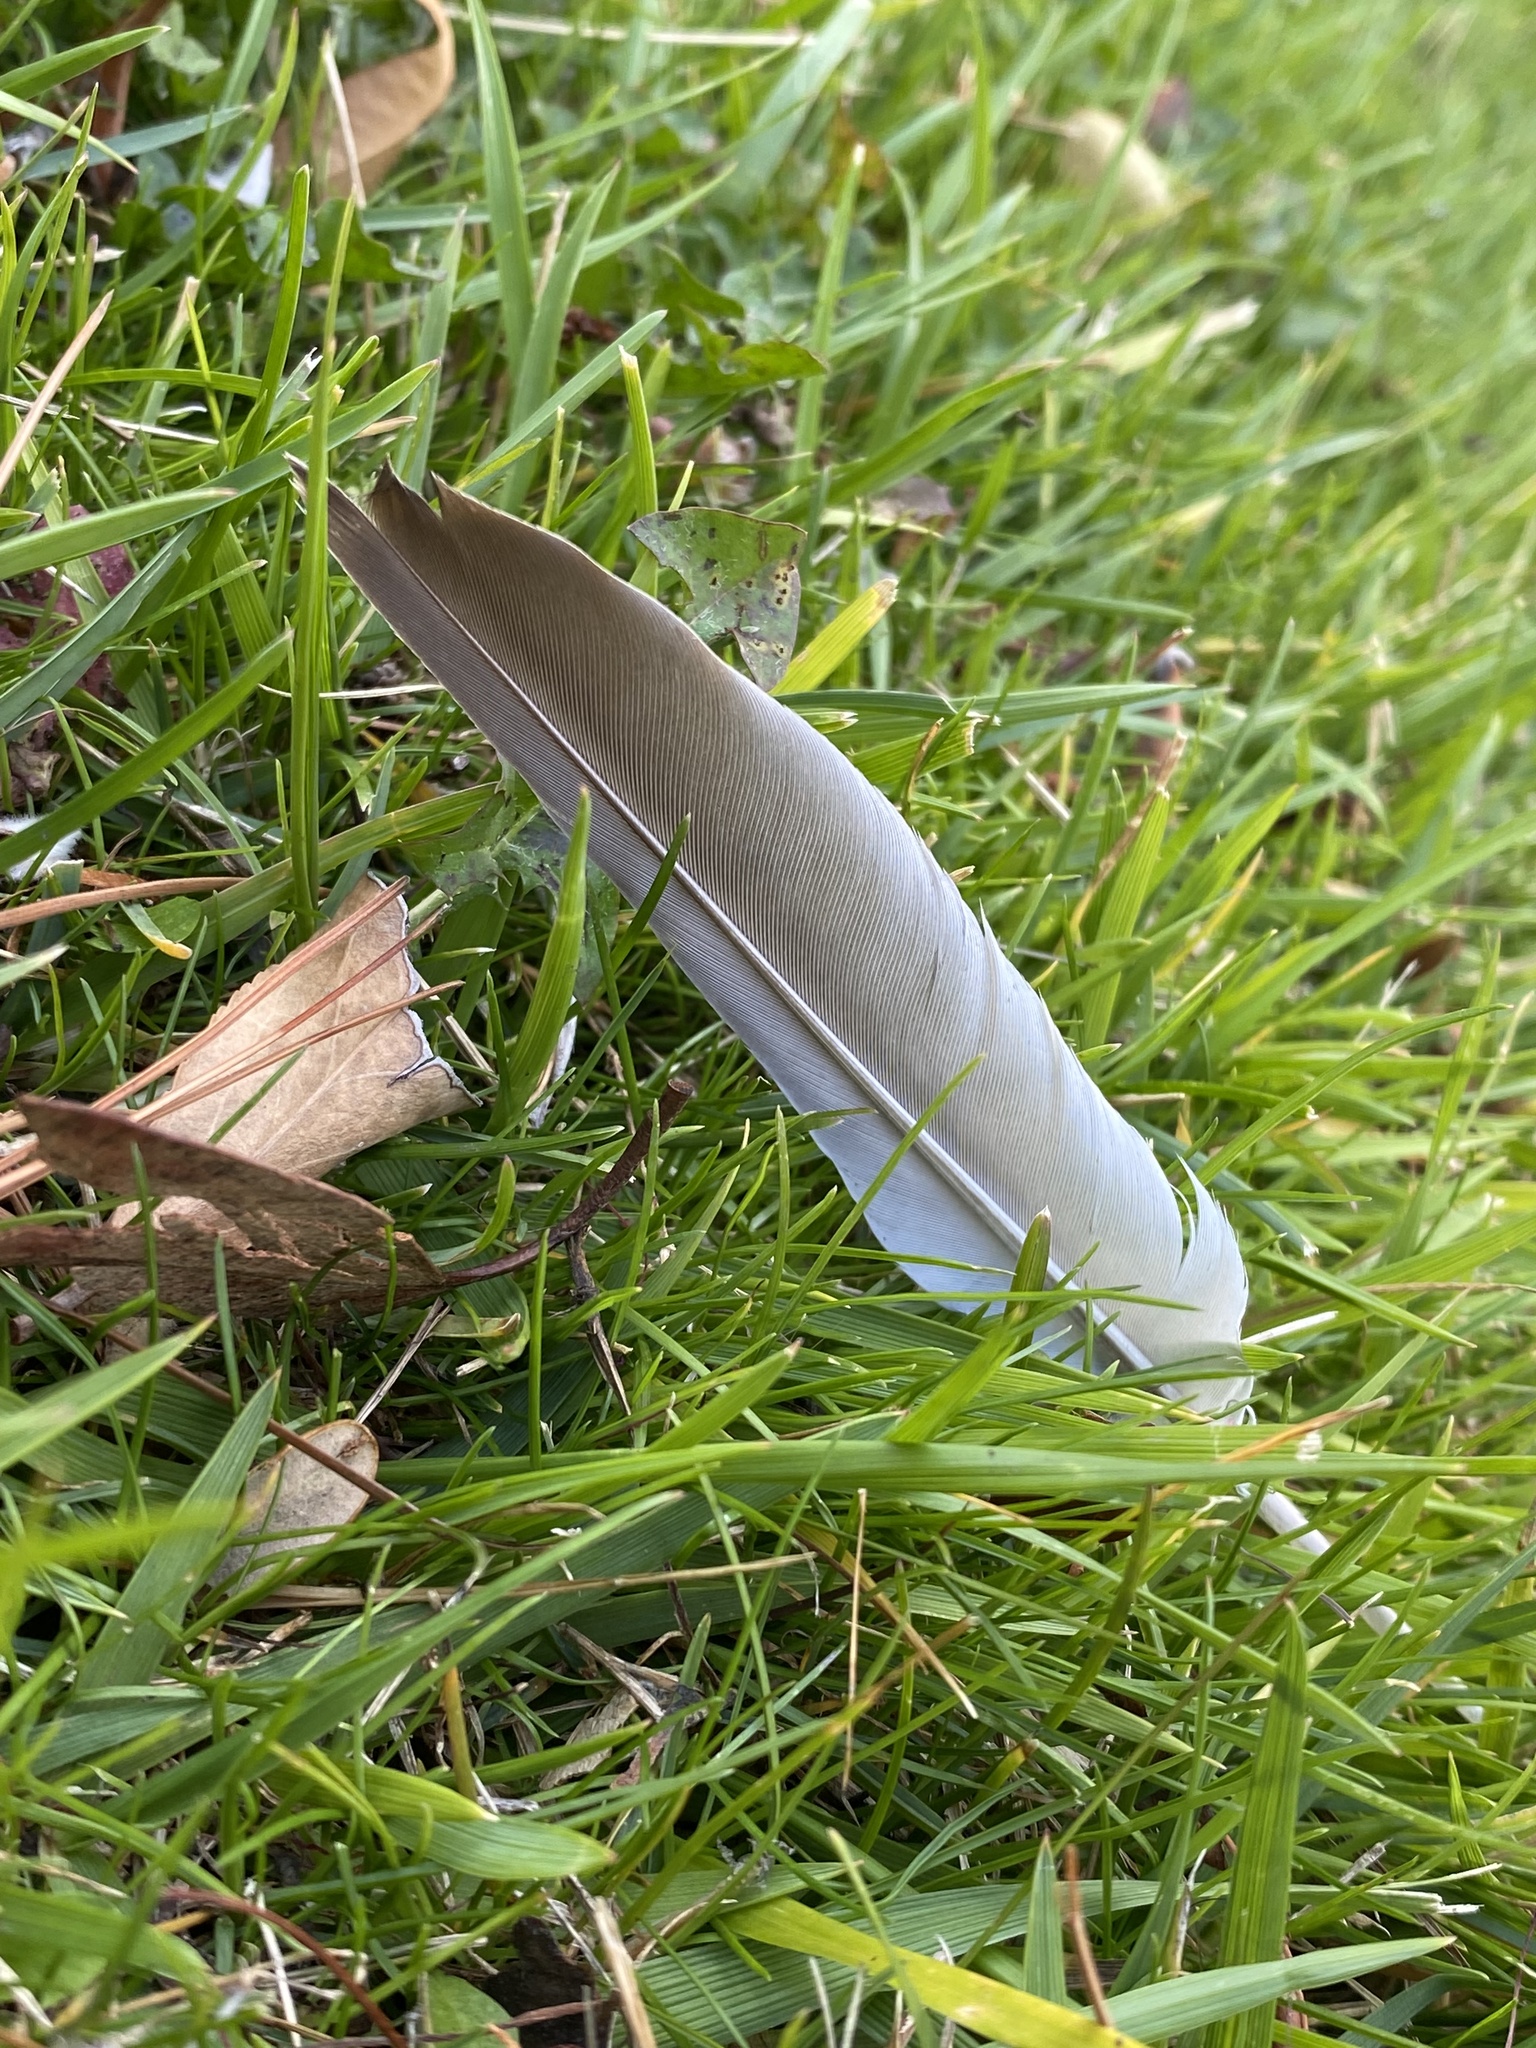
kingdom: Animalia
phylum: Chordata
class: Aves
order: Columbiformes
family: Columbidae
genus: Zenaida
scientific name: Zenaida macroura
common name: Mourning dove
